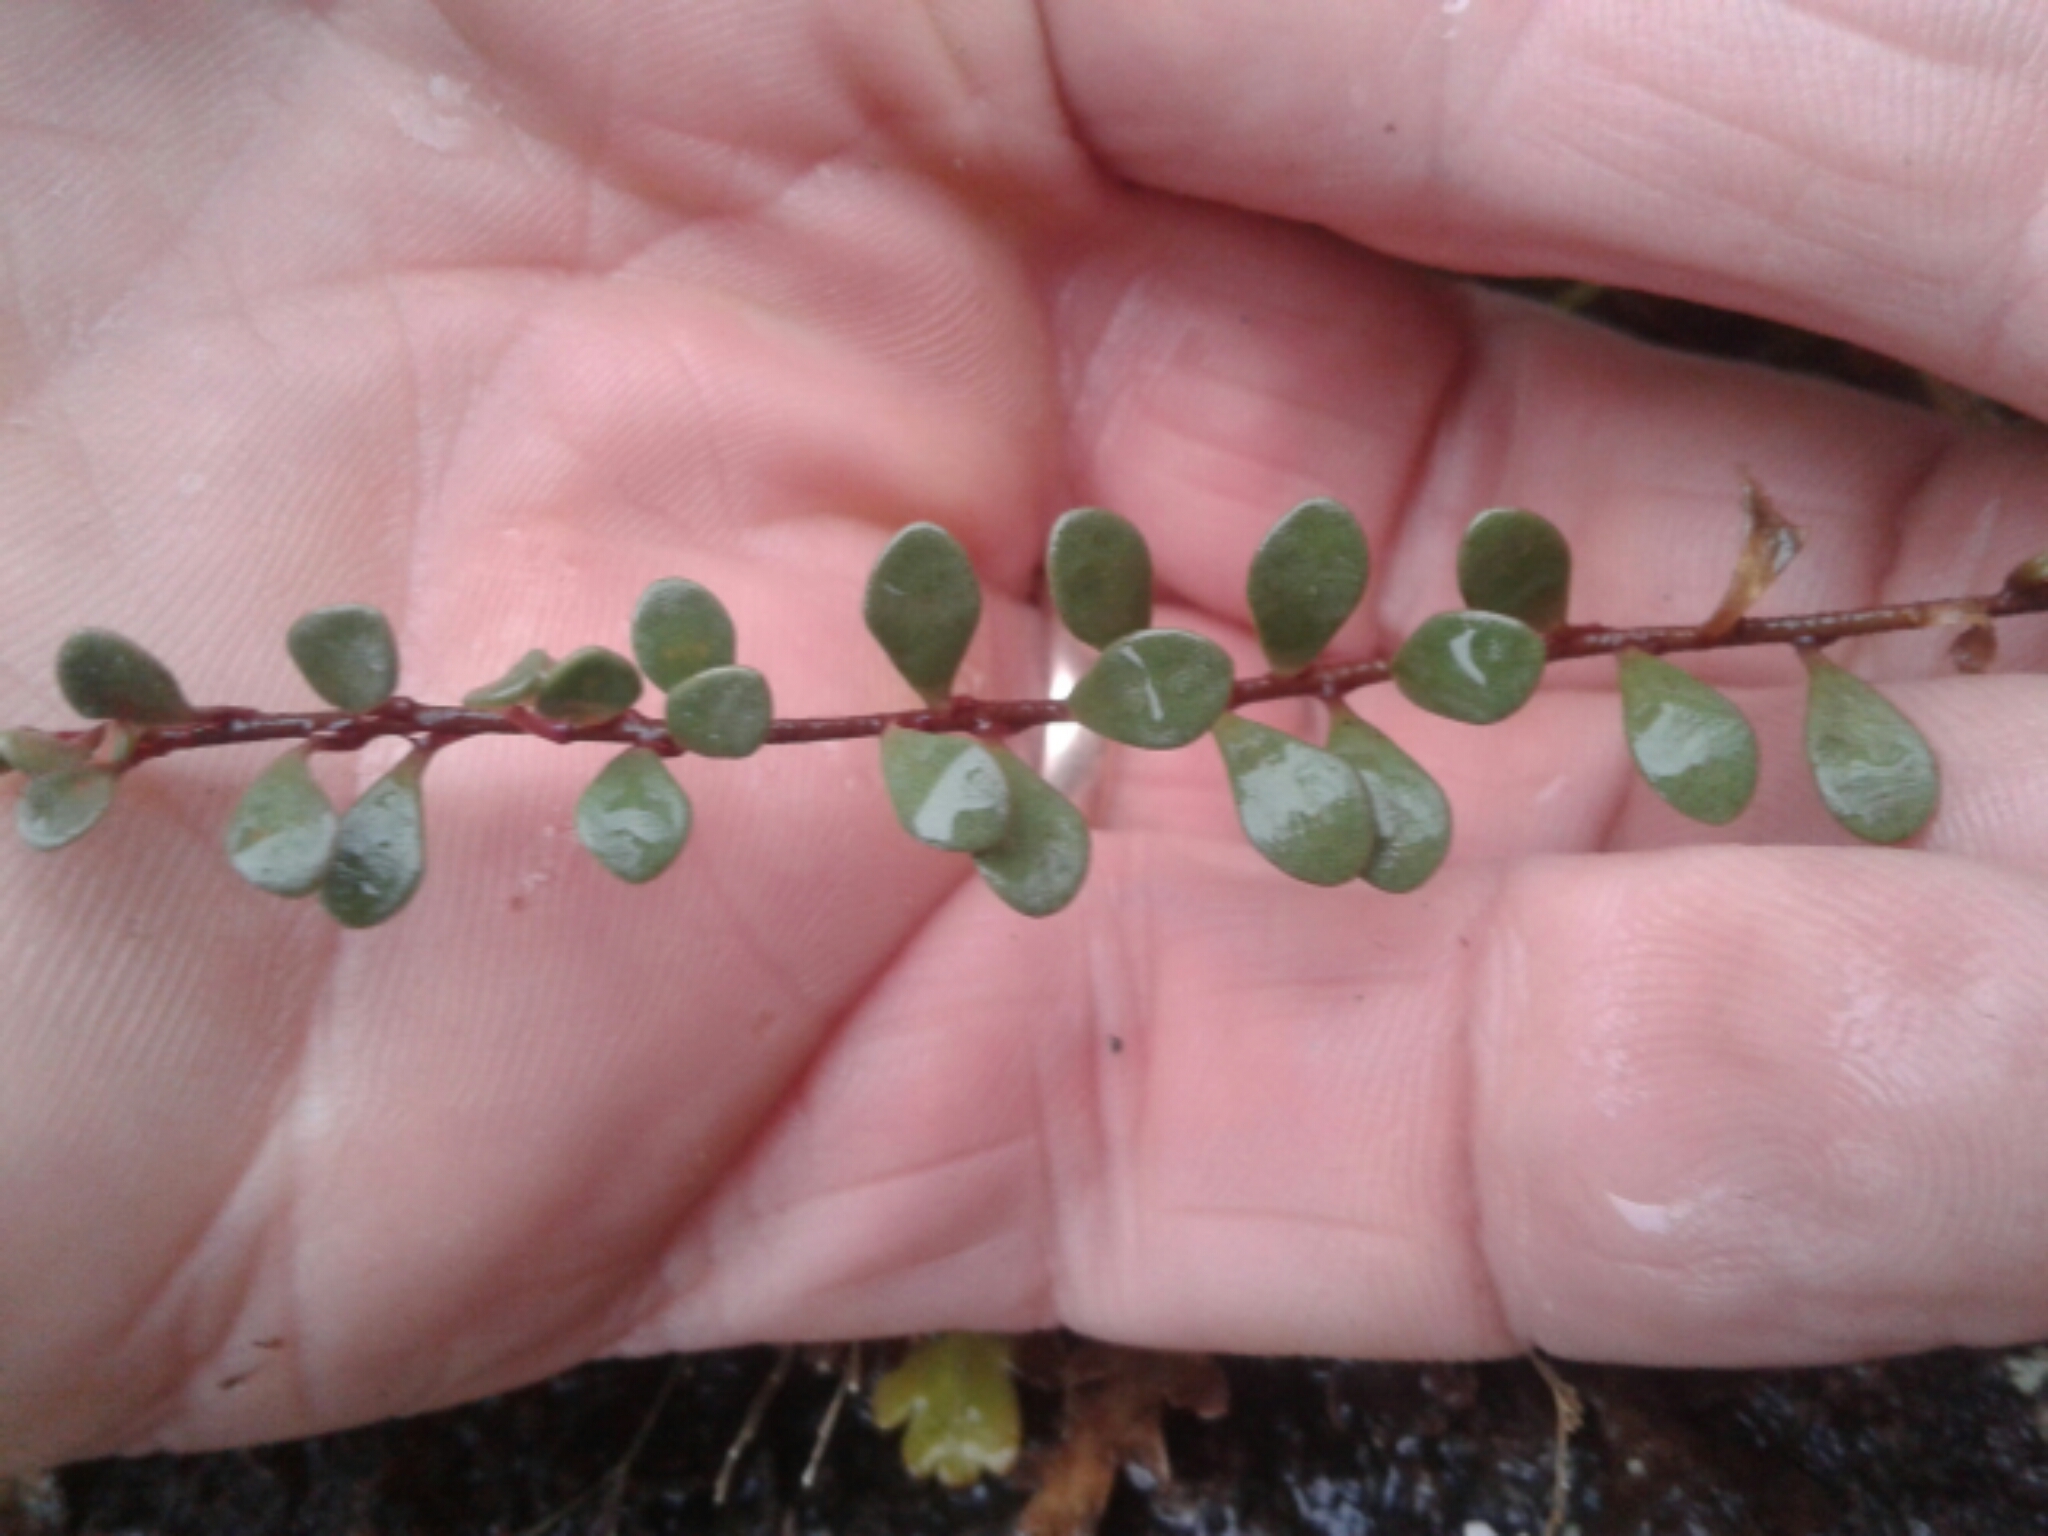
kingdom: Plantae
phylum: Tracheophyta
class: Magnoliopsida
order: Ericales
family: Primulaceae
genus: Samolus
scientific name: Samolus repens
